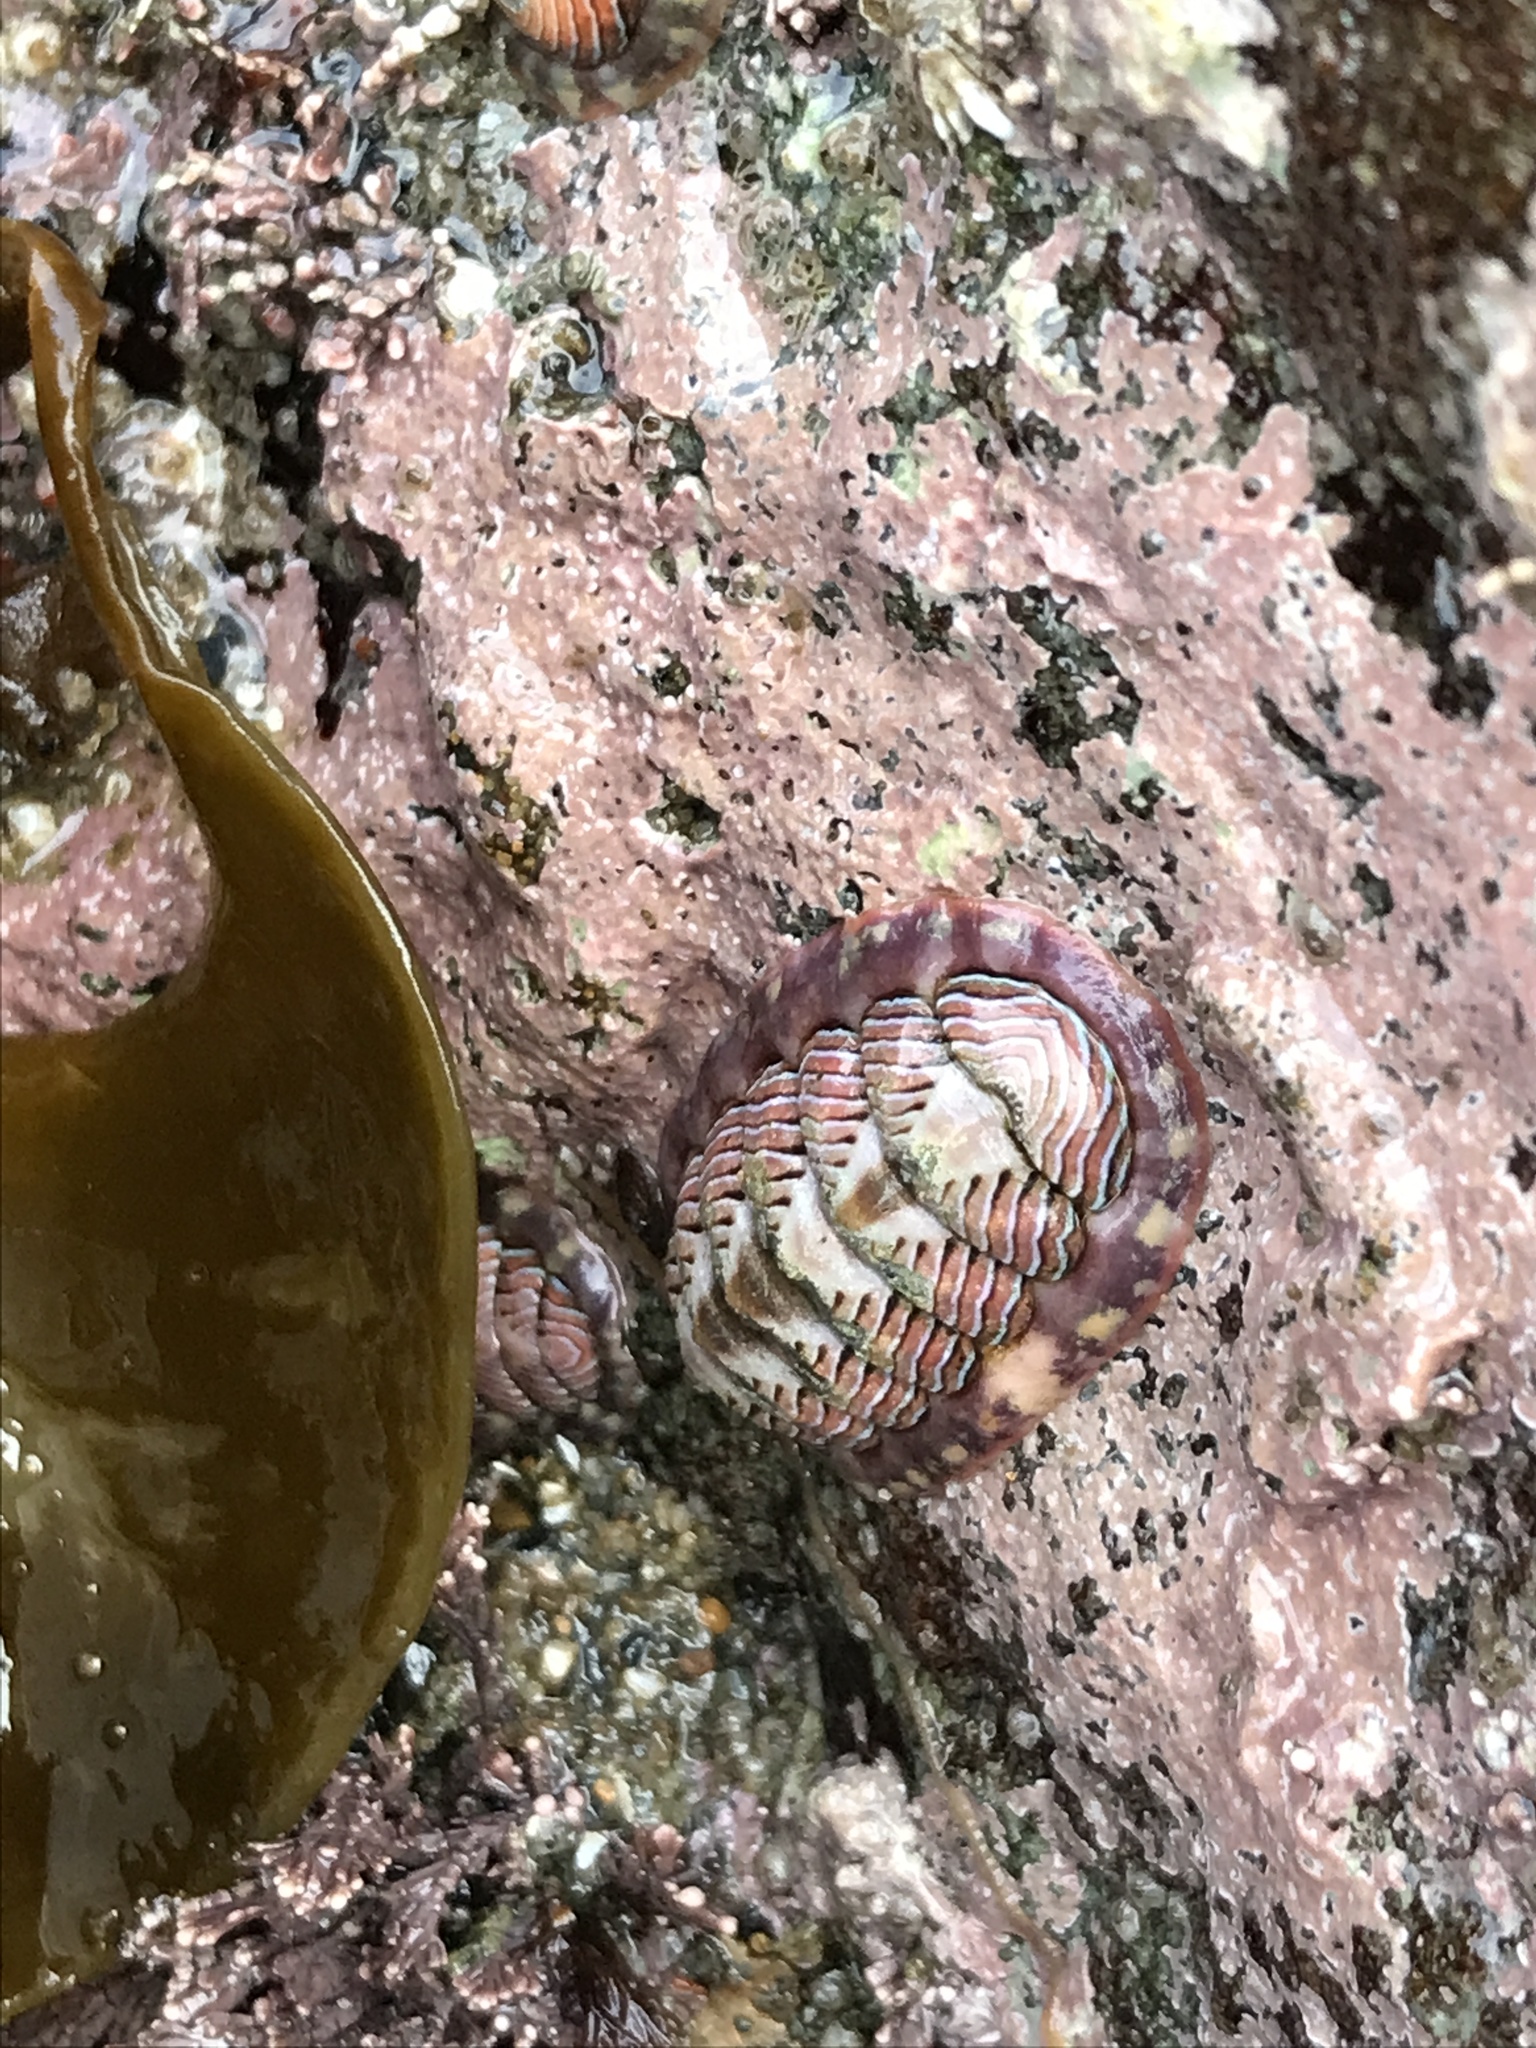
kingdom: Animalia
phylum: Mollusca
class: Polyplacophora
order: Chitonida
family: Tonicellidae
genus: Tonicella
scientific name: Tonicella lineata
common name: Lined chiton
